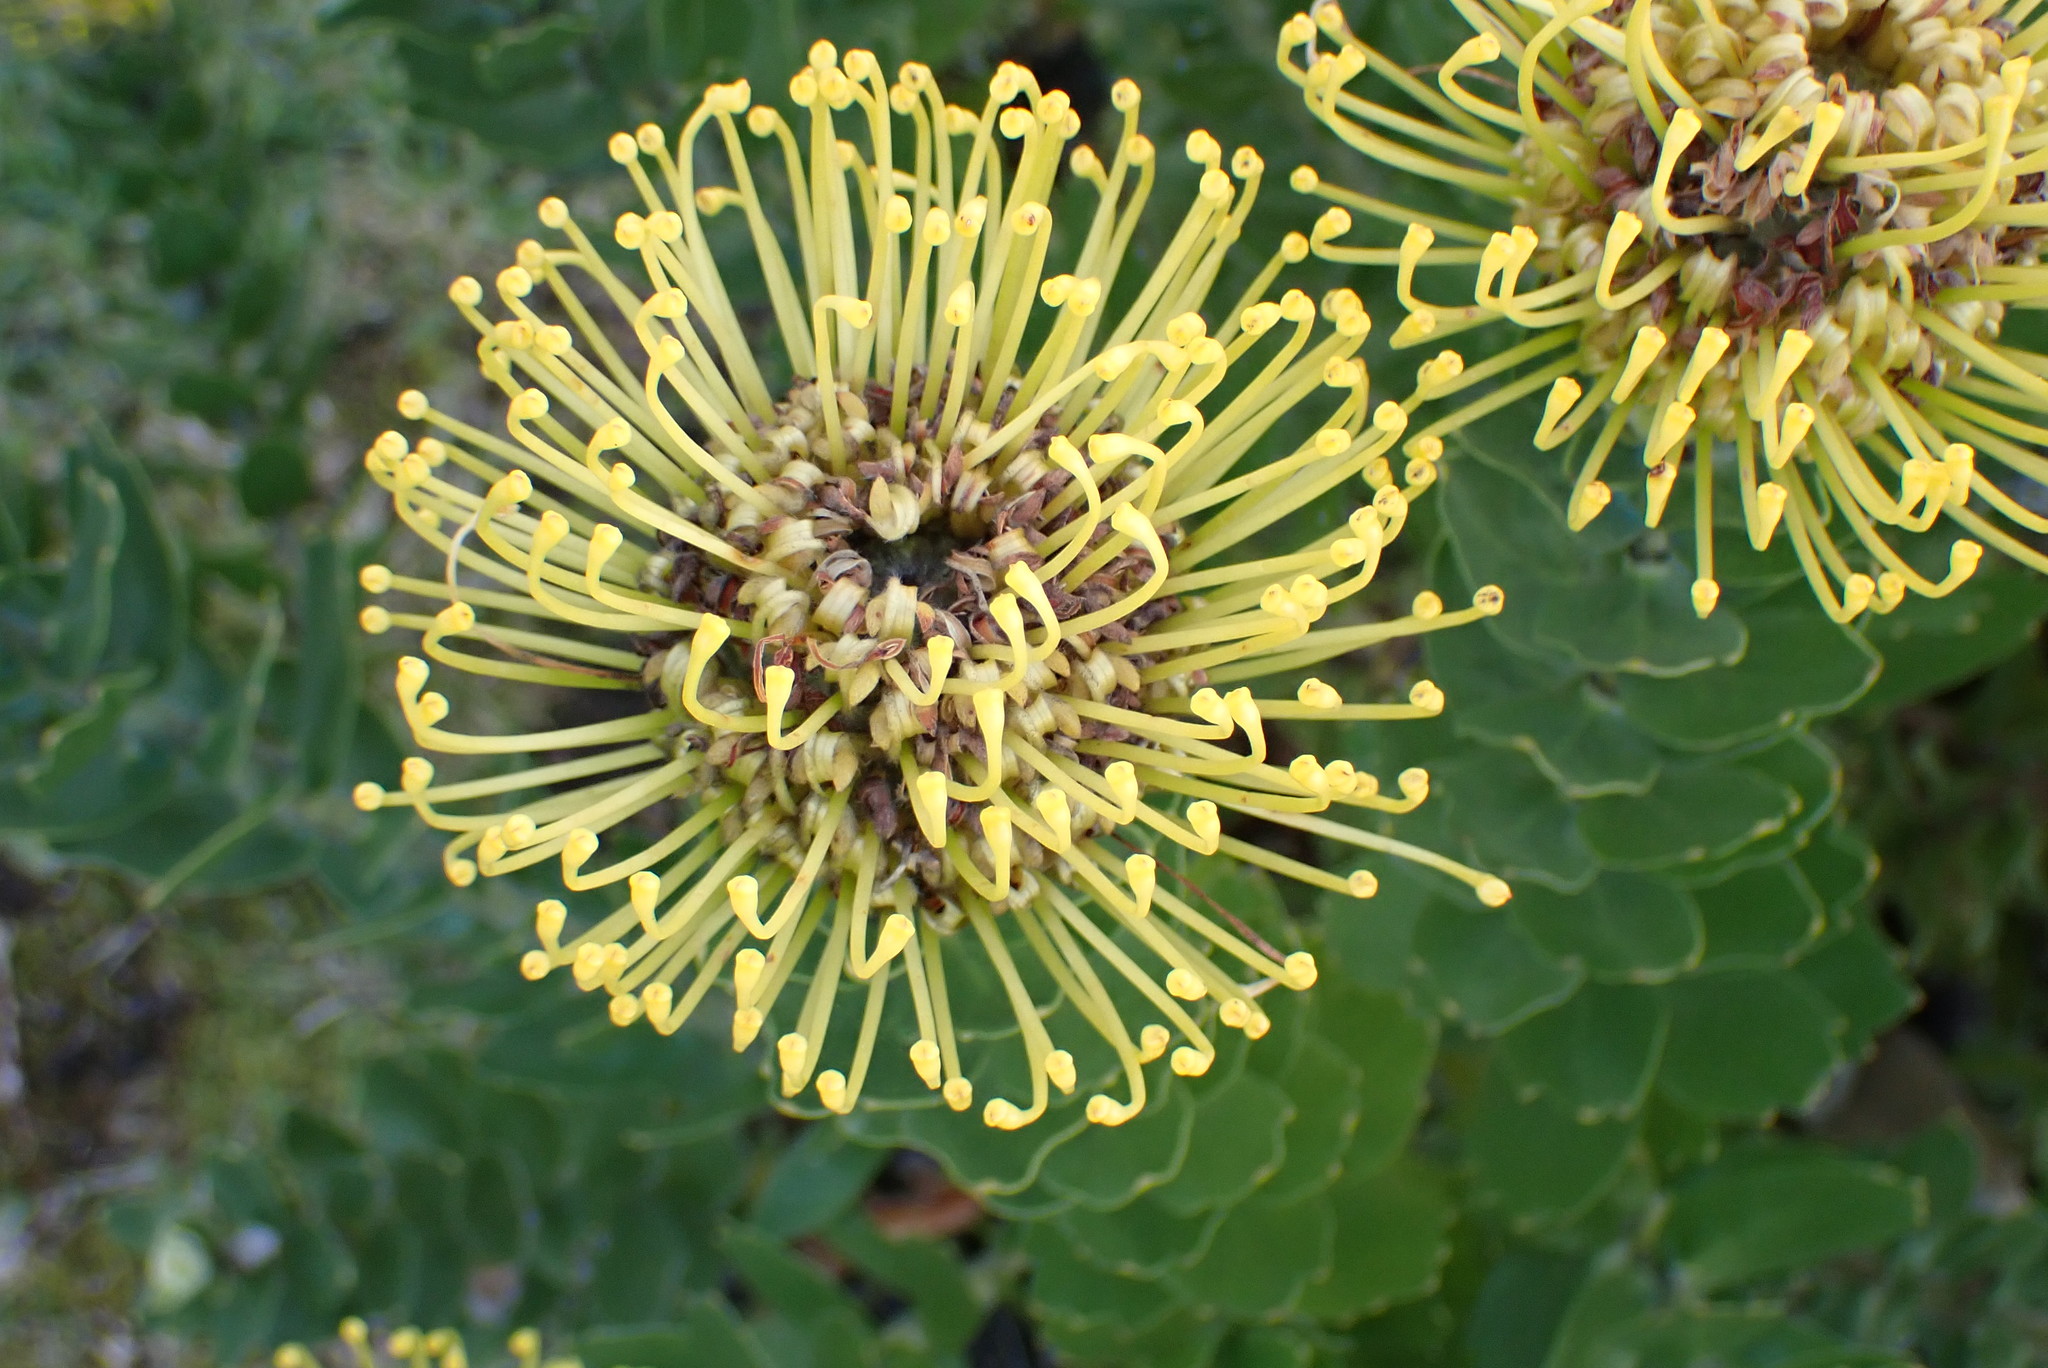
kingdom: Plantae
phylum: Tracheophyta
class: Magnoliopsida
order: Proteales
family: Proteaceae
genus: Leucospermum
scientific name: Leucospermum
